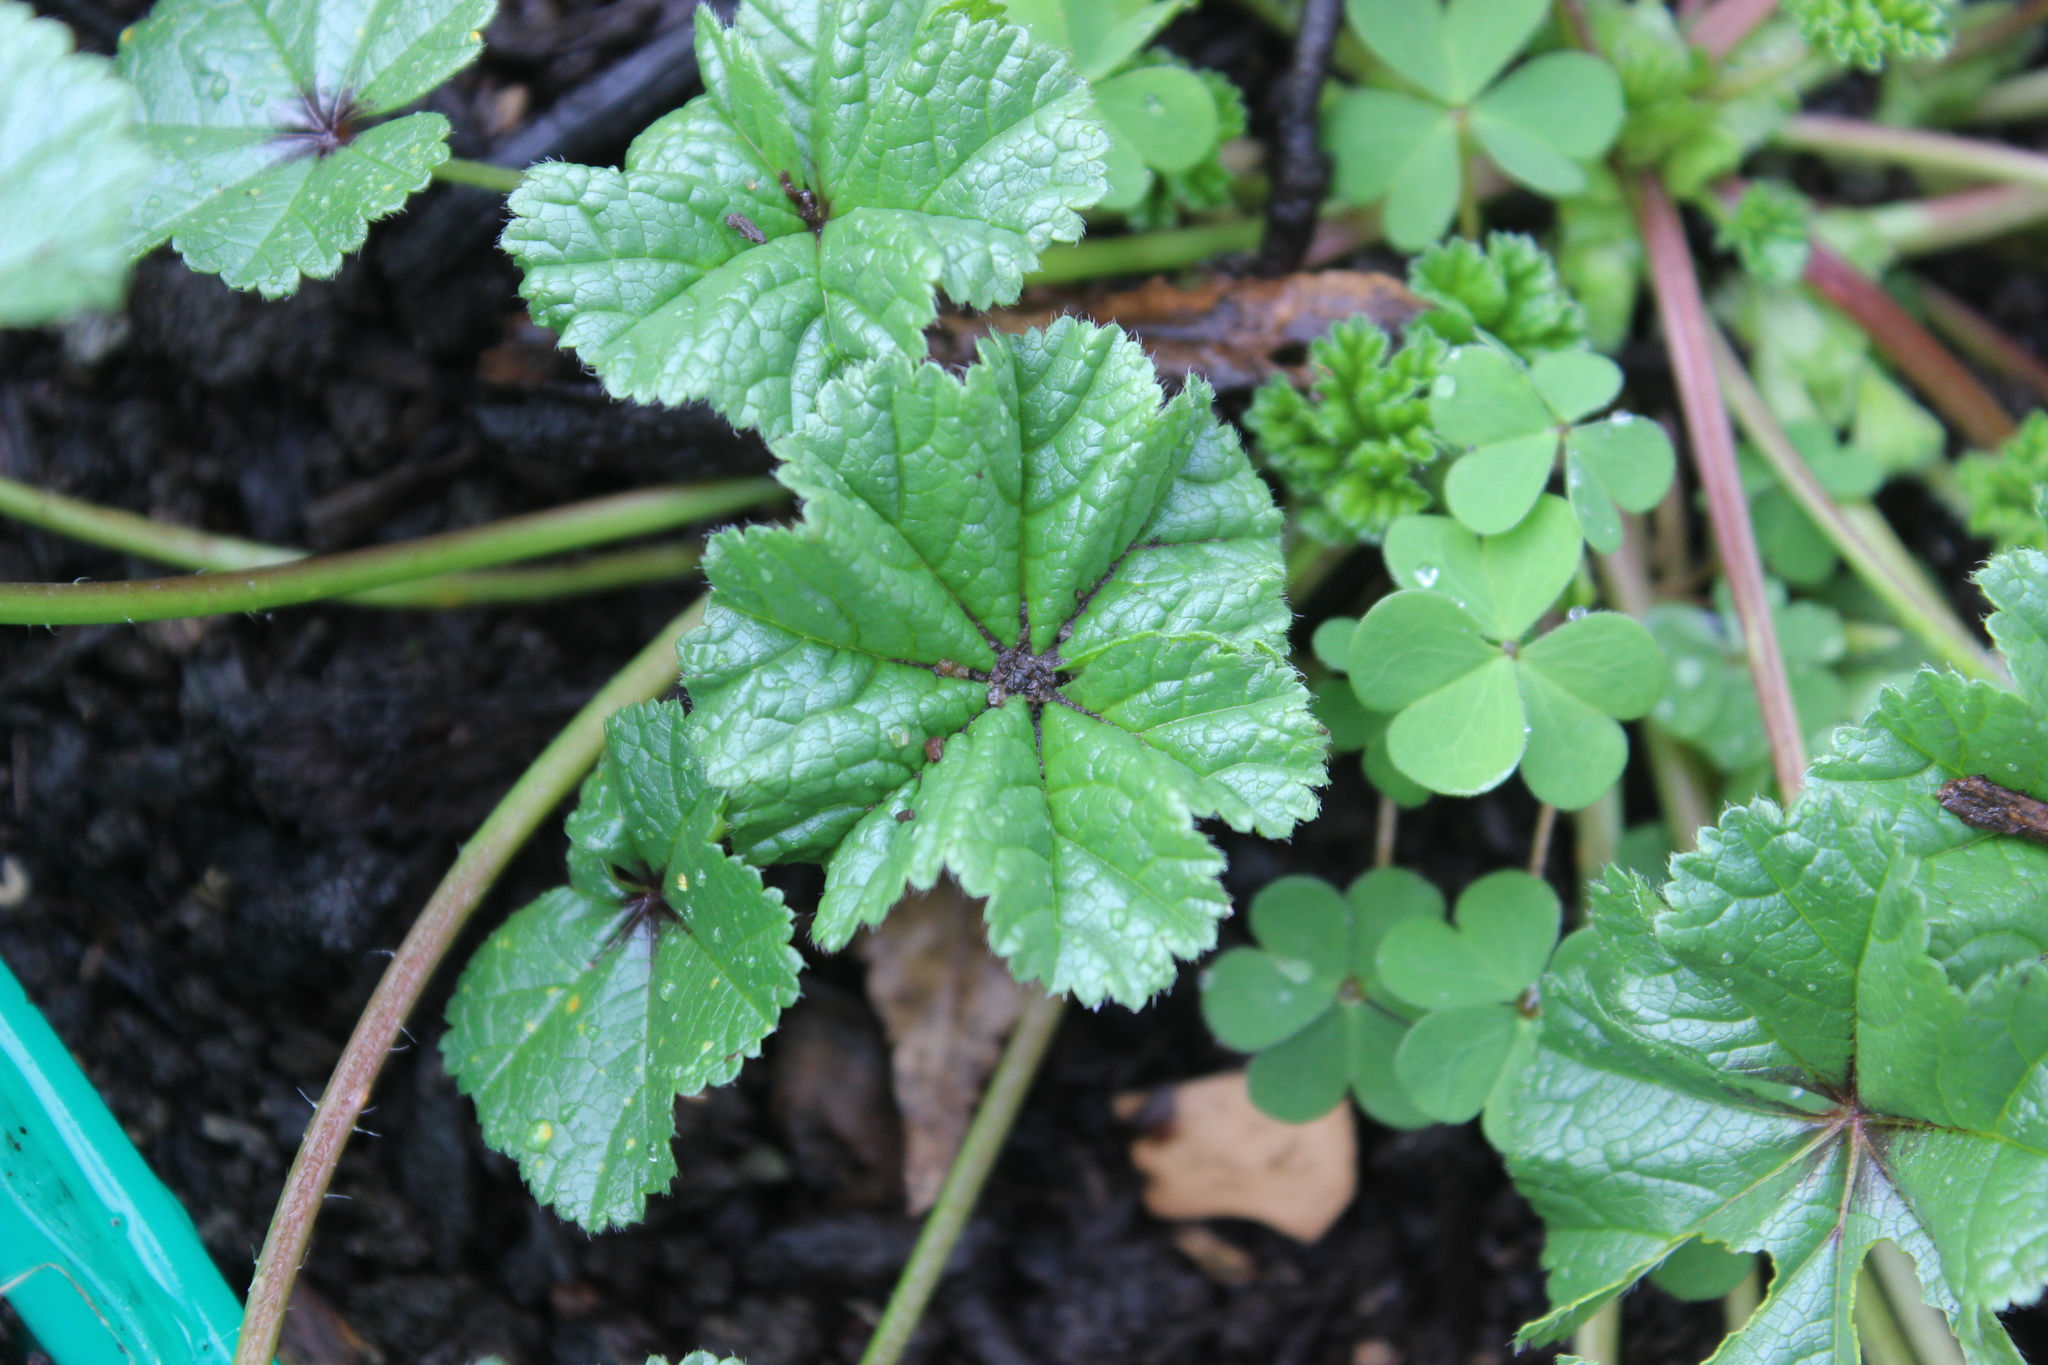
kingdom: Plantae
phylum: Tracheophyta
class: Magnoliopsida
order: Malvales
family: Malvaceae
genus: Malva
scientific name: Malva nicaeensis
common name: French mallow
